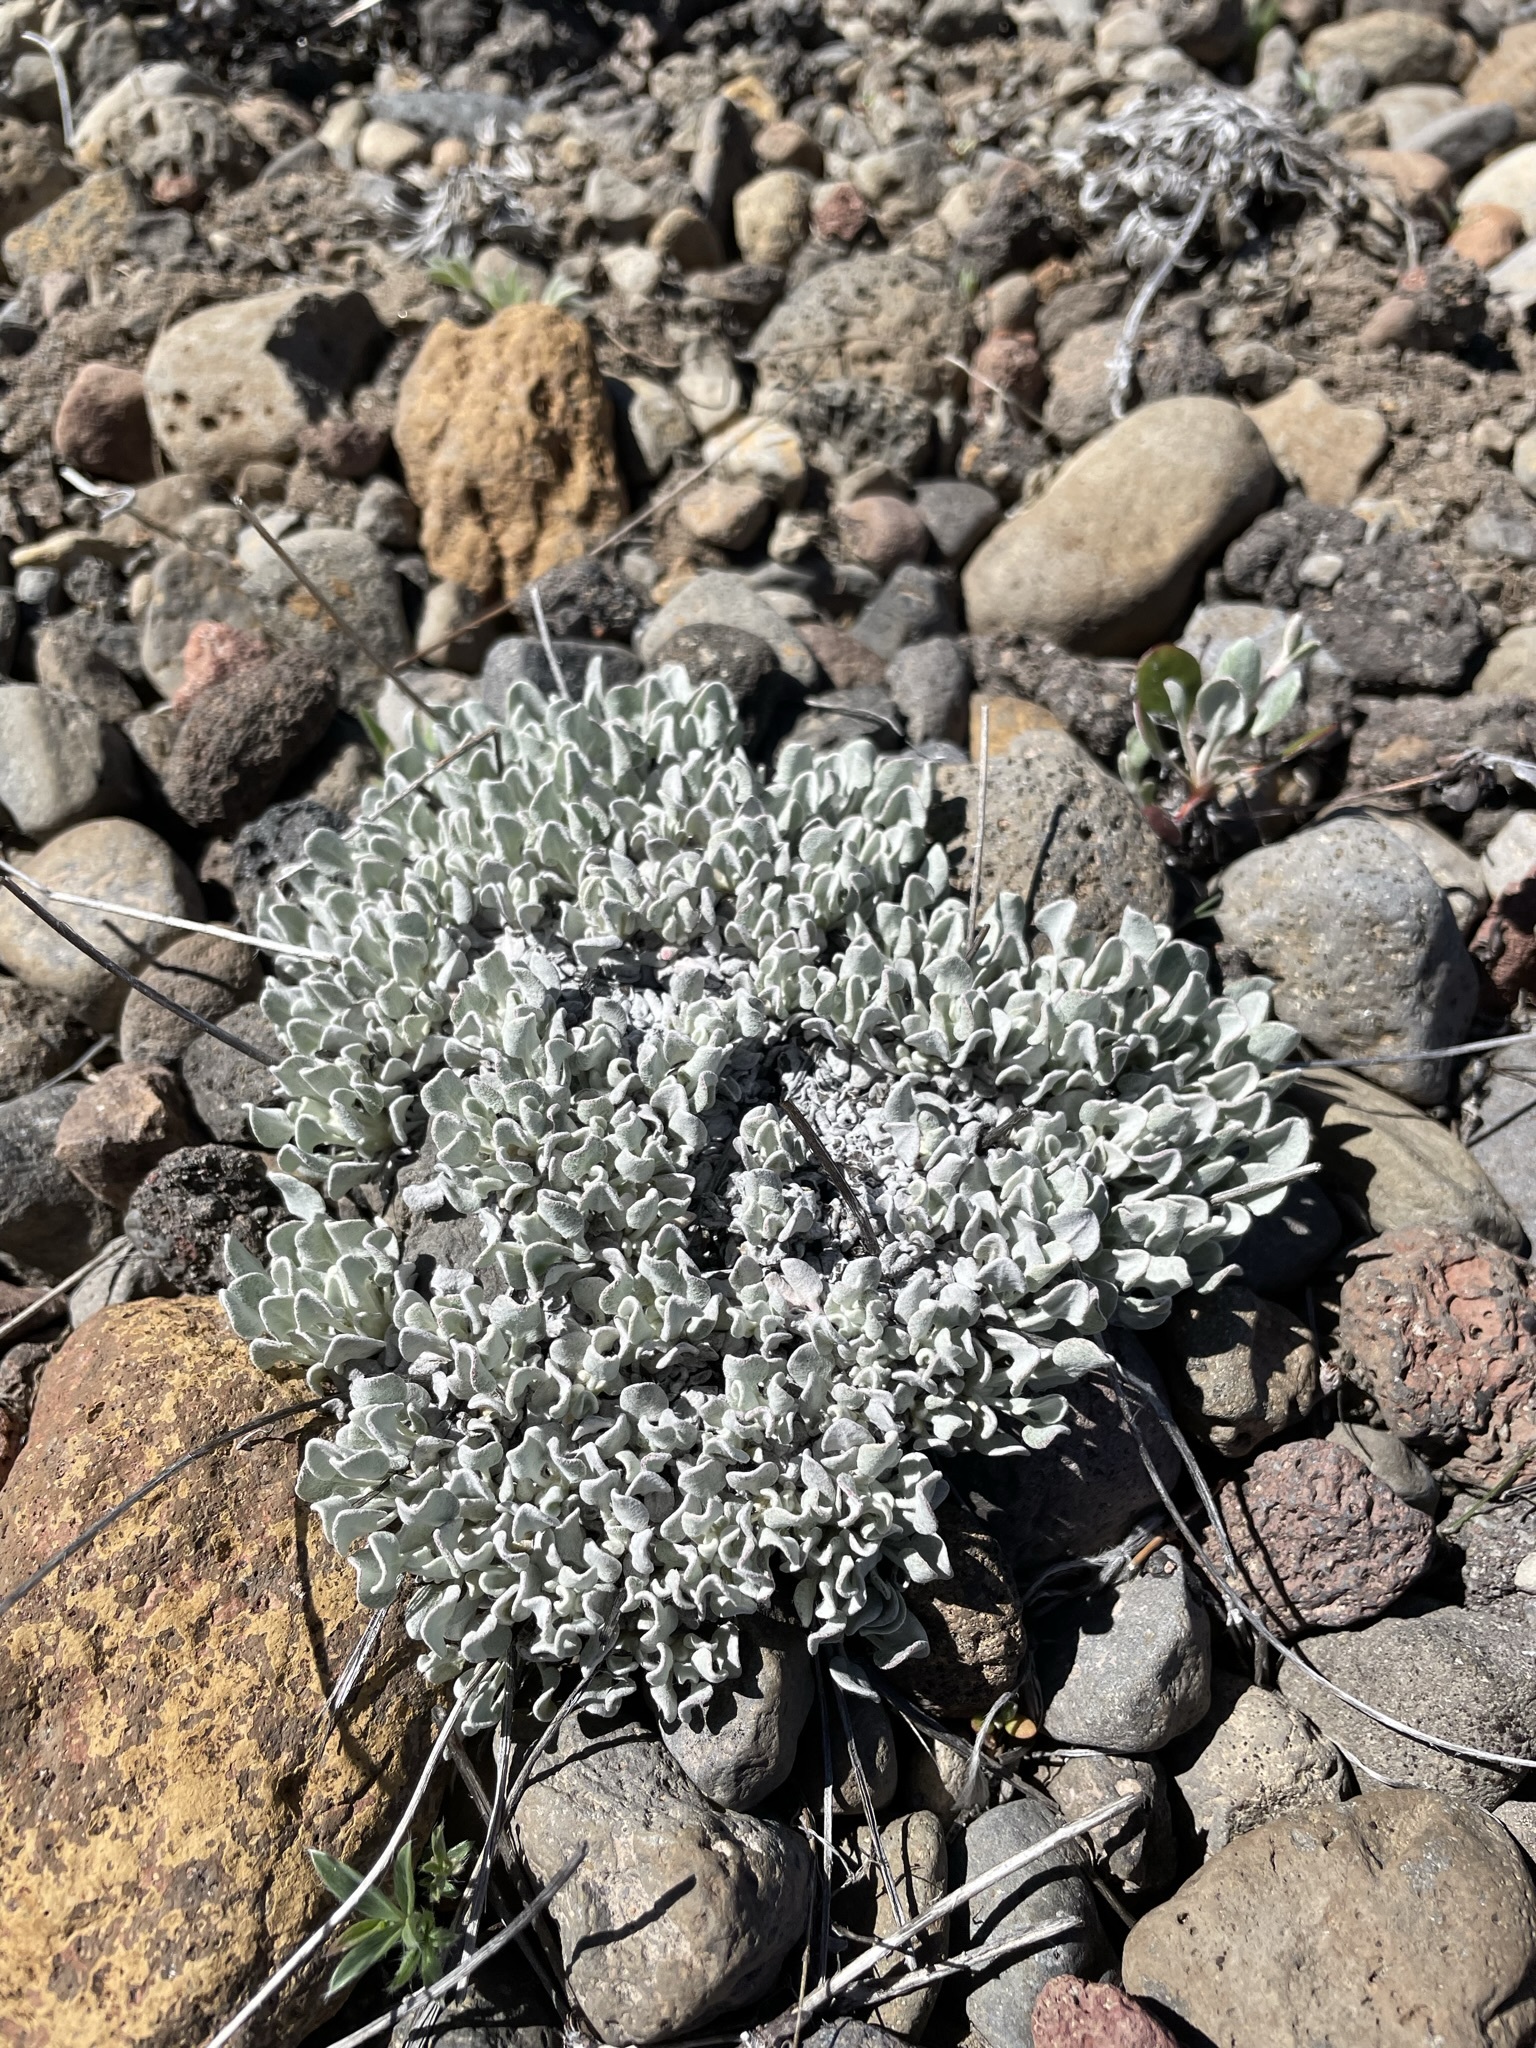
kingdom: Plantae
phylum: Tracheophyta
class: Magnoliopsida
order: Caryophyllales
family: Polygonaceae
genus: Eriogonum
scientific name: Eriogonum ovalifolium
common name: Cushion buckwheat
